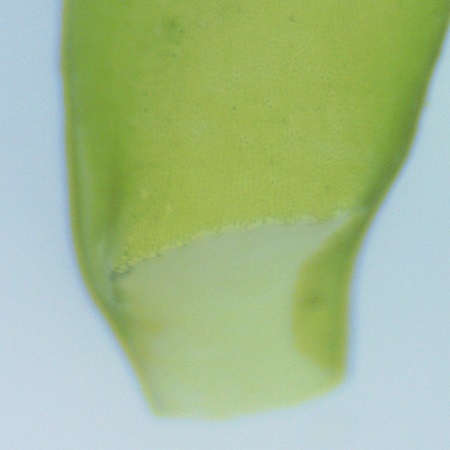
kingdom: Plantae
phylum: Chlorophyta
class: Ulvophyceae
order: Ulvales
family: Ulvaceae
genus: Ulva
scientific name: Ulva flexuosa
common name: Flexuous gutweed
